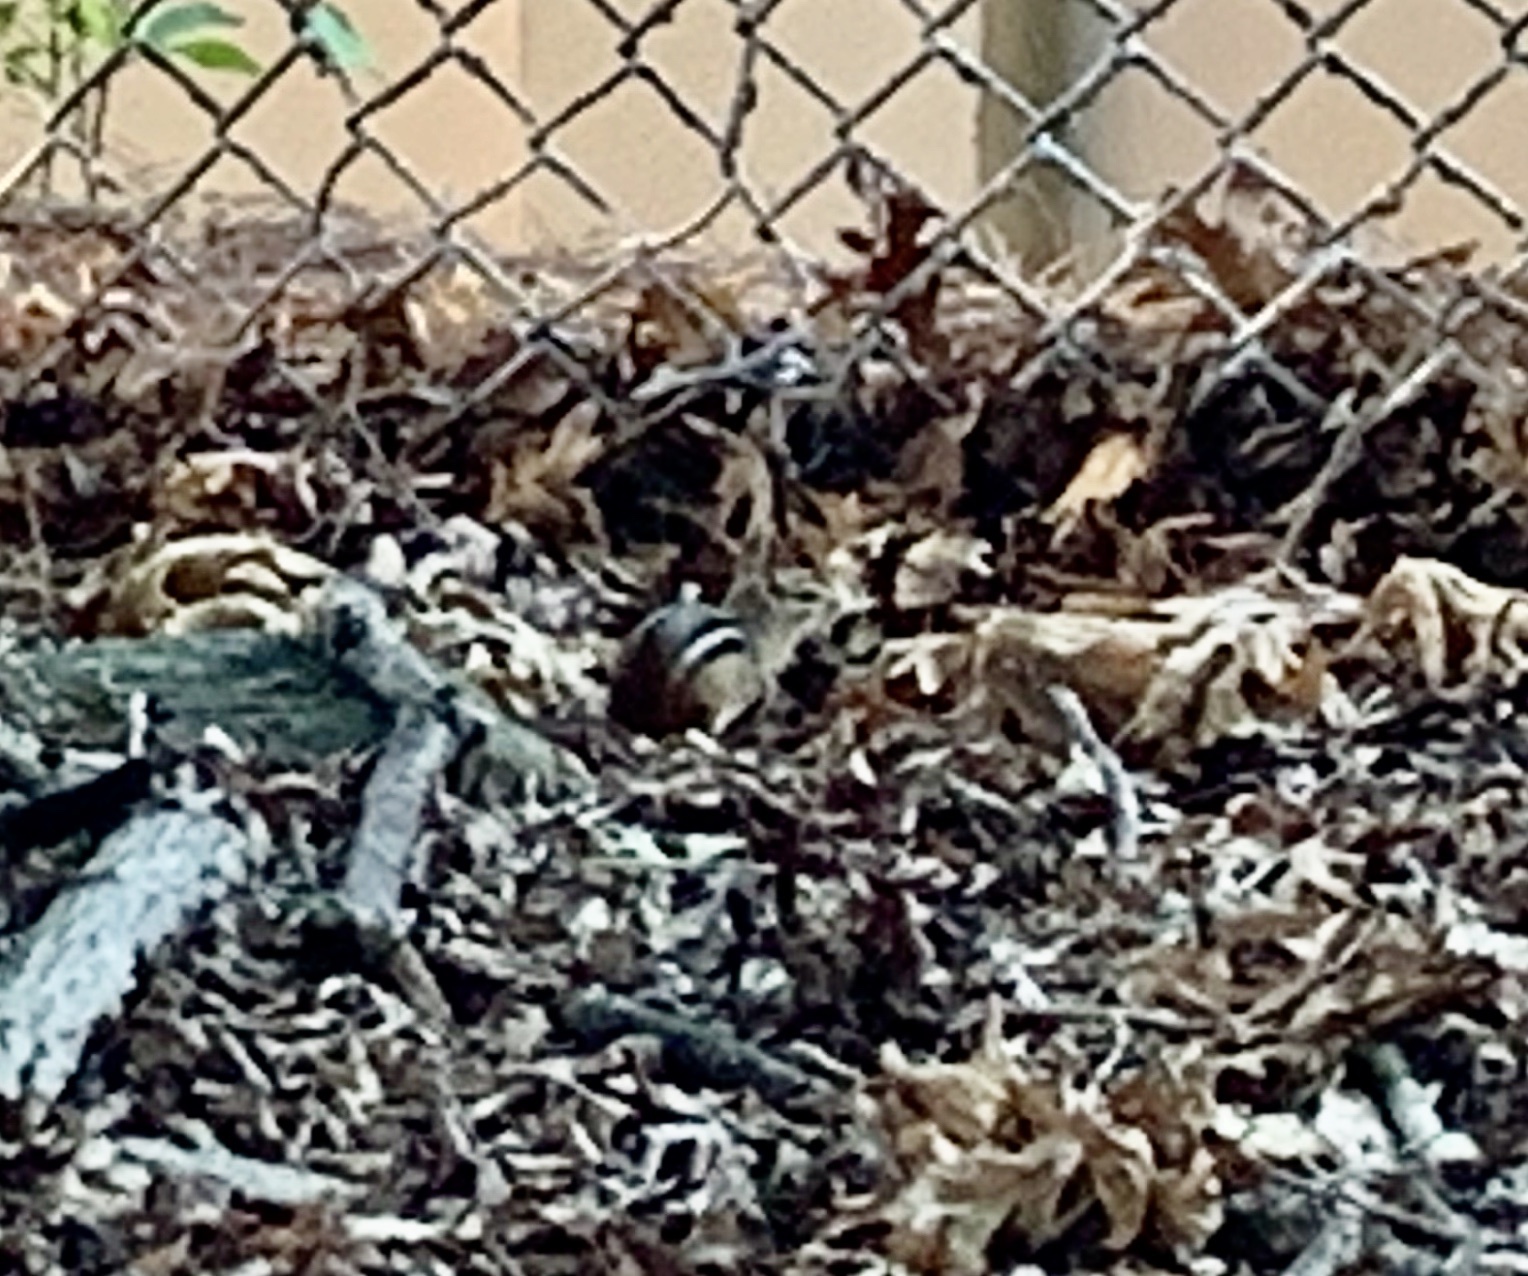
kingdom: Animalia
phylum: Chordata
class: Mammalia
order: Rodentia
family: Sciuridae
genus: Tamias
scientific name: Tamias striatus
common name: Eastern chipmunk
